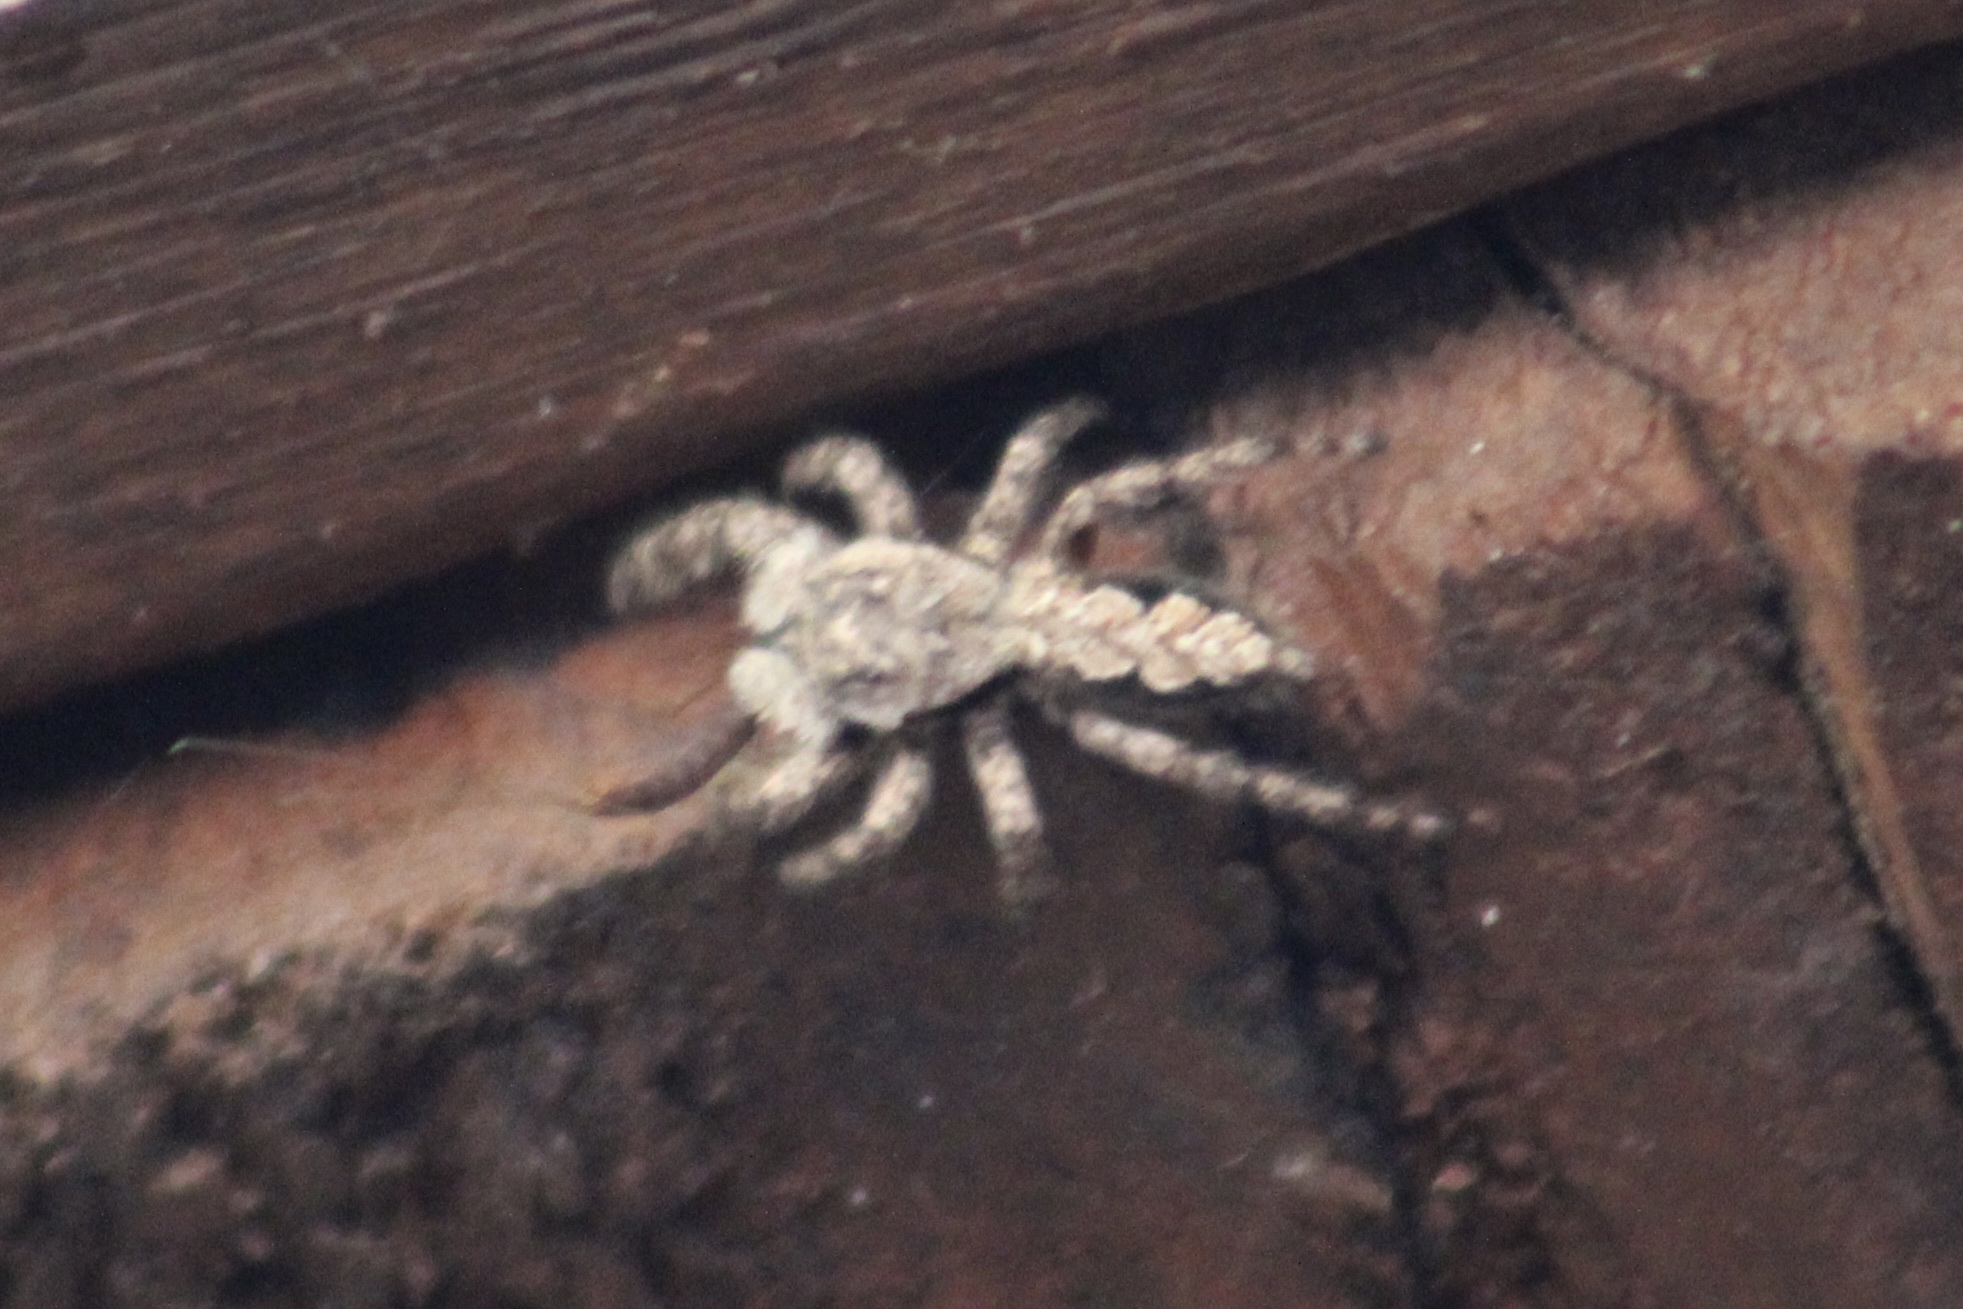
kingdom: Animalia
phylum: Arthropoda
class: Arachnida
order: Araneae
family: Salticidae
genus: Platycryptus
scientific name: Platycryptus undatus
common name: Tan jumping spider
